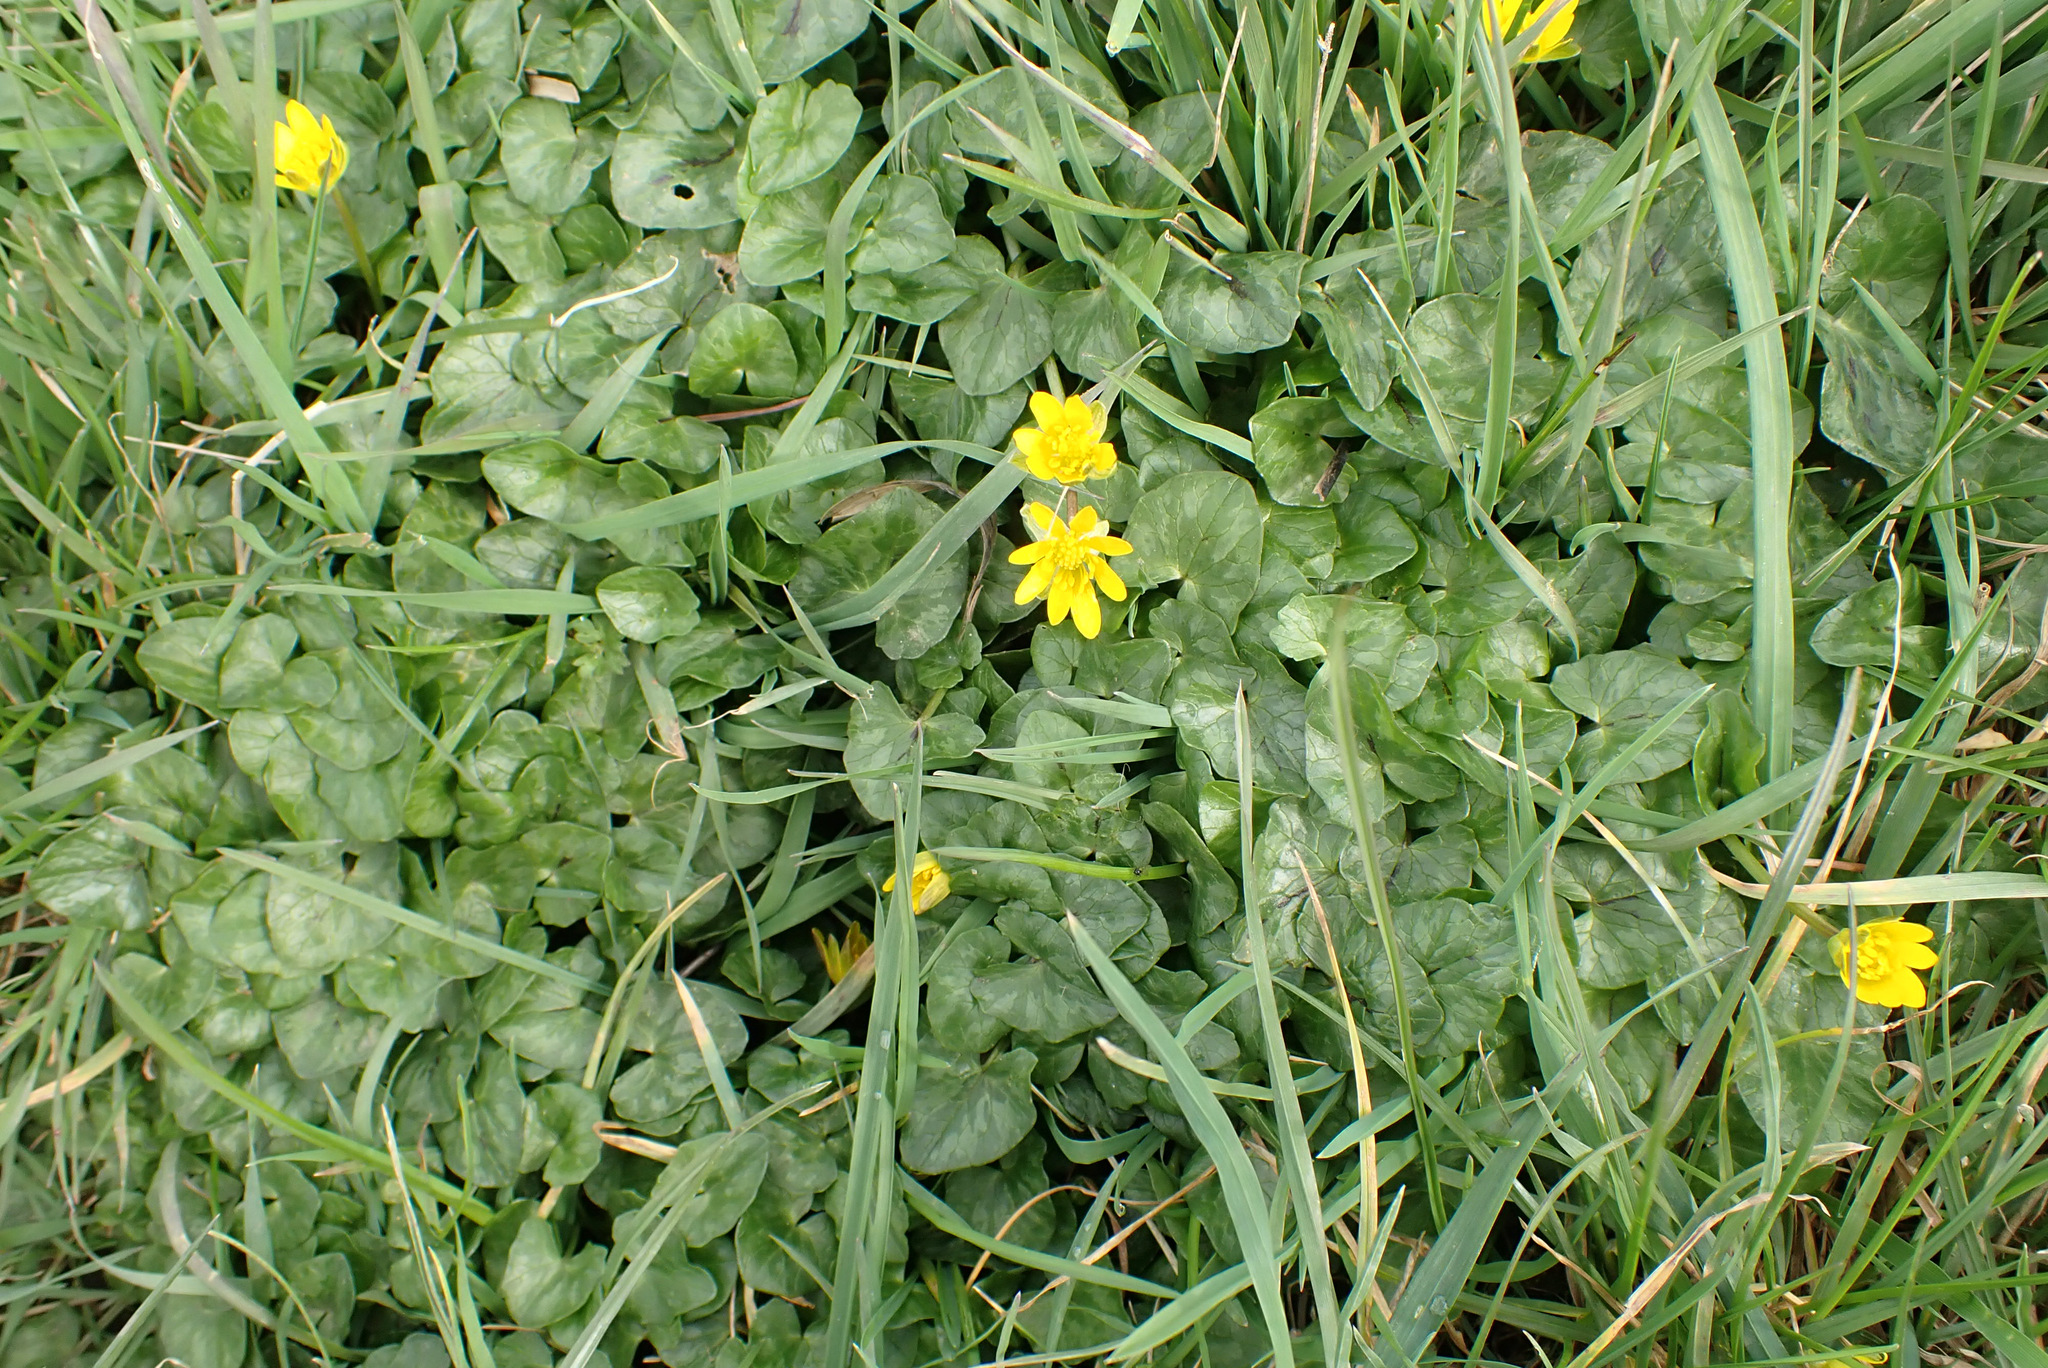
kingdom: Plantae
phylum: Tracheophyta
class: Magnoliopsida
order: Ranunculales
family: Ranunculaceae
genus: Ficaria
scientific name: Ficaria verna
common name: Lesser celandine
